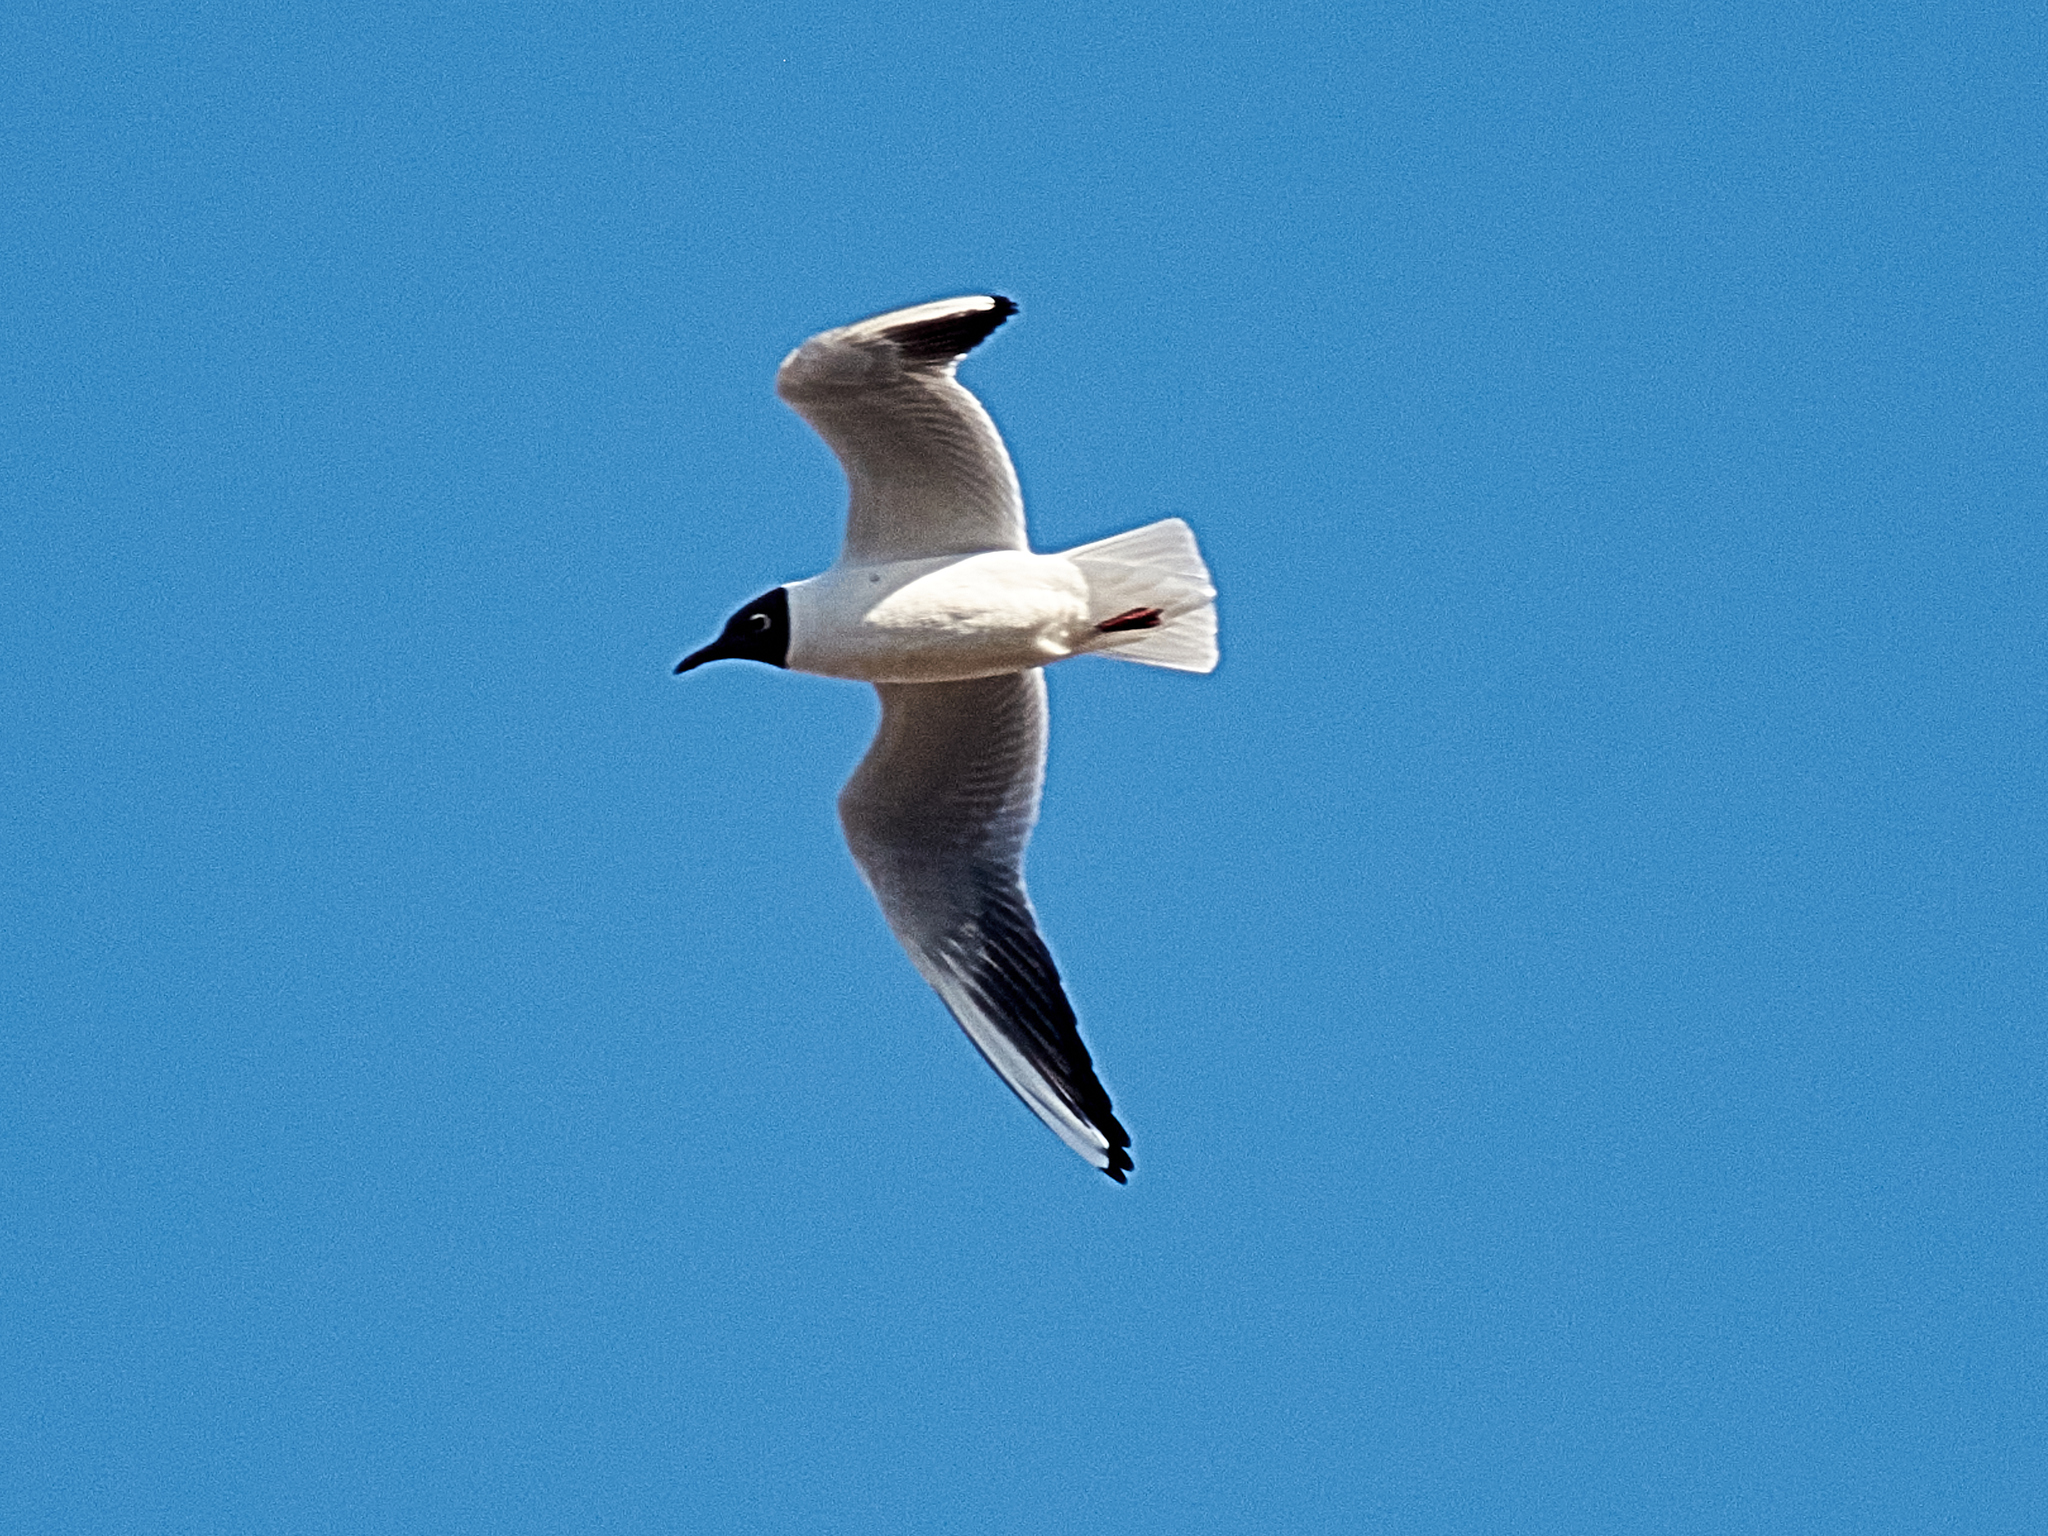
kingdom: Animalia
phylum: Chordata
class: Aves
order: Charadriiformes
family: Laridae
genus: Chroicocephalus
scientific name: Chroicocephalus ridibundus
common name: Black-headed gull
